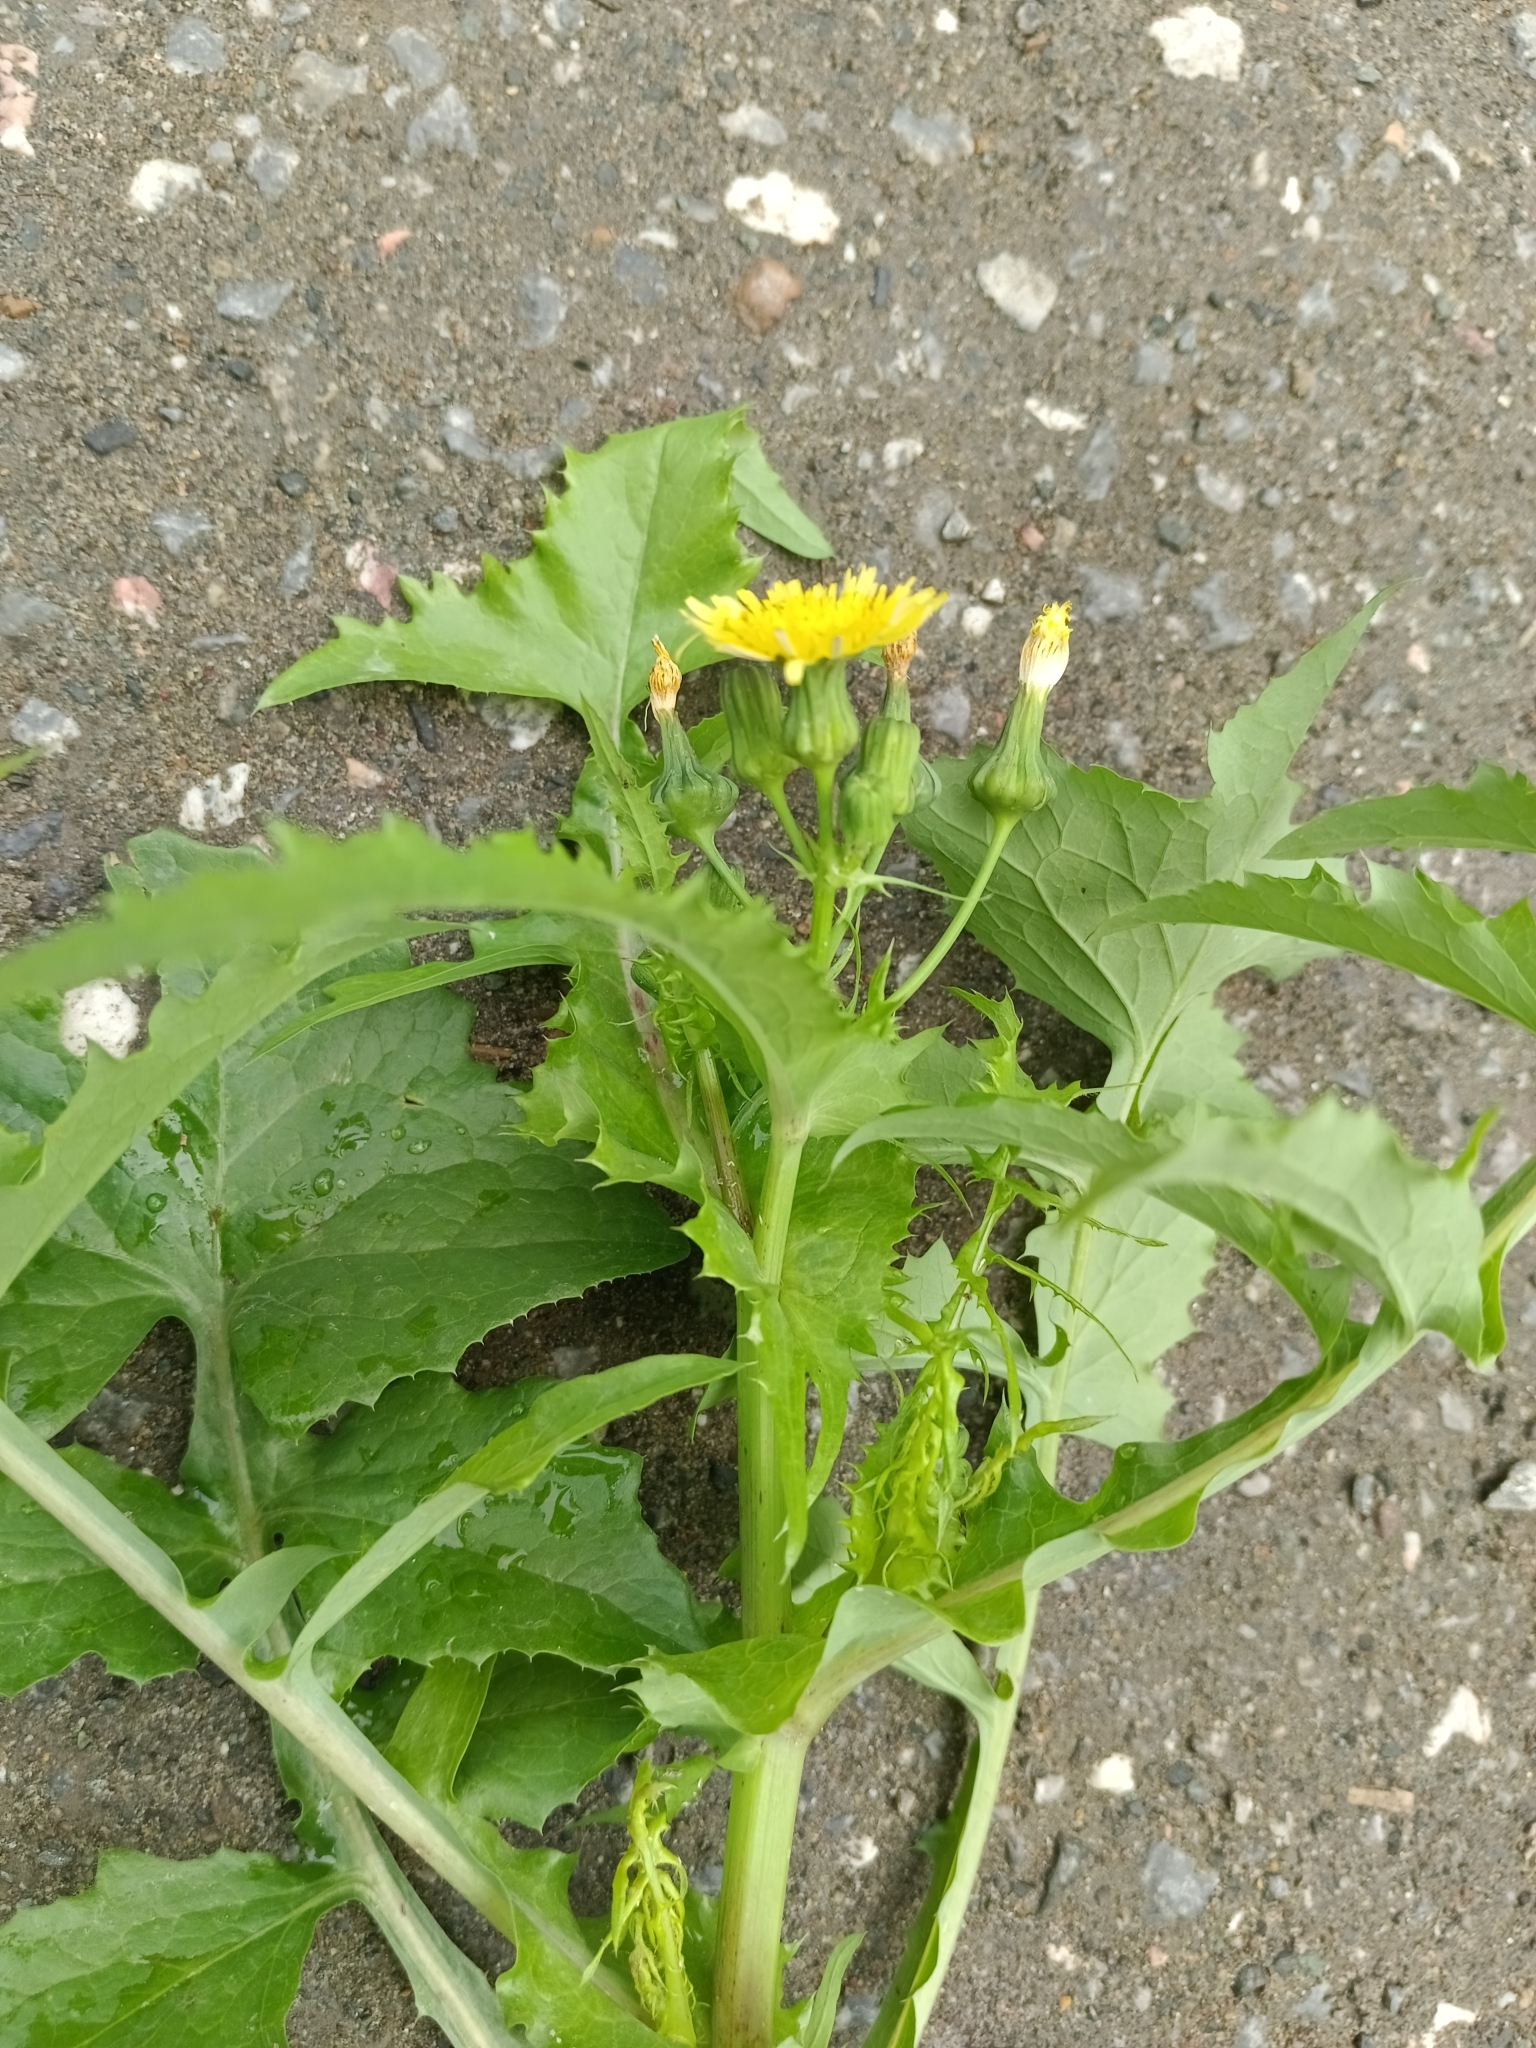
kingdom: Plantae
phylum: Tracheophyta
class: Magnoliopsida
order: Asterales
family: Asteraceae
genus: Sonchus
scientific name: Sonchus oleraceus
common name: Common sowthistle
